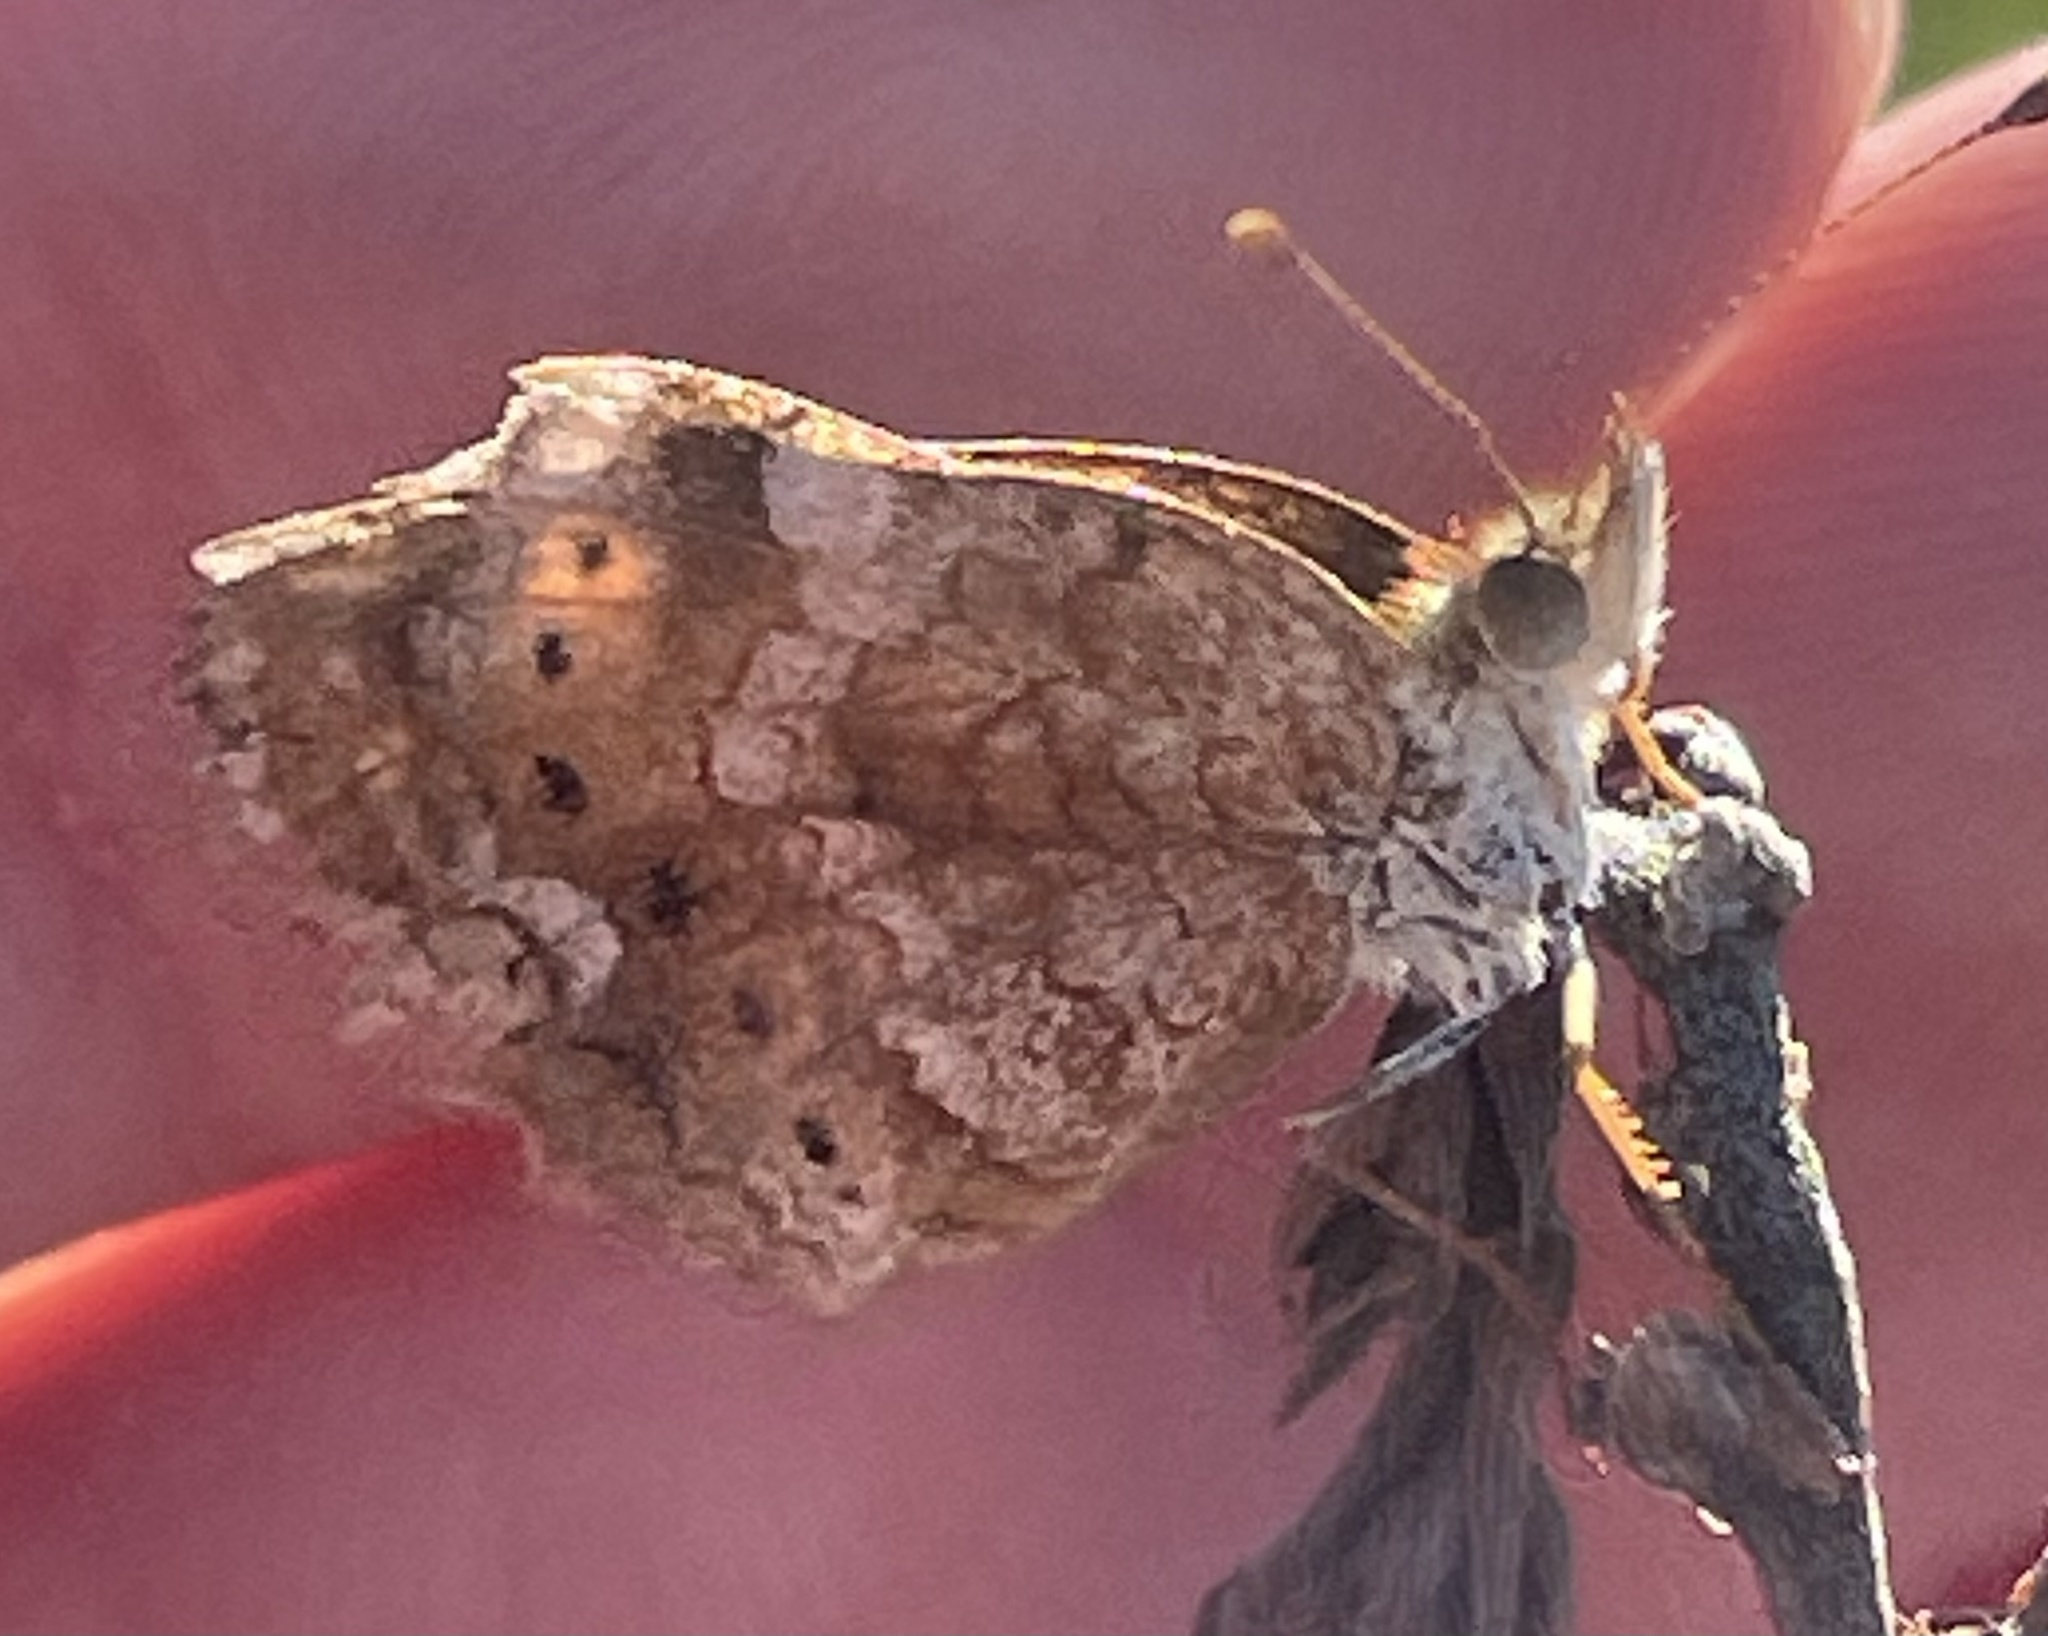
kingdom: Animalia
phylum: Arthropoda
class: Insecta
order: Lepidoptera
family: Nymphalidae
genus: Phyciodes
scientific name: Phyciodes phaon
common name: Phaon crescent
